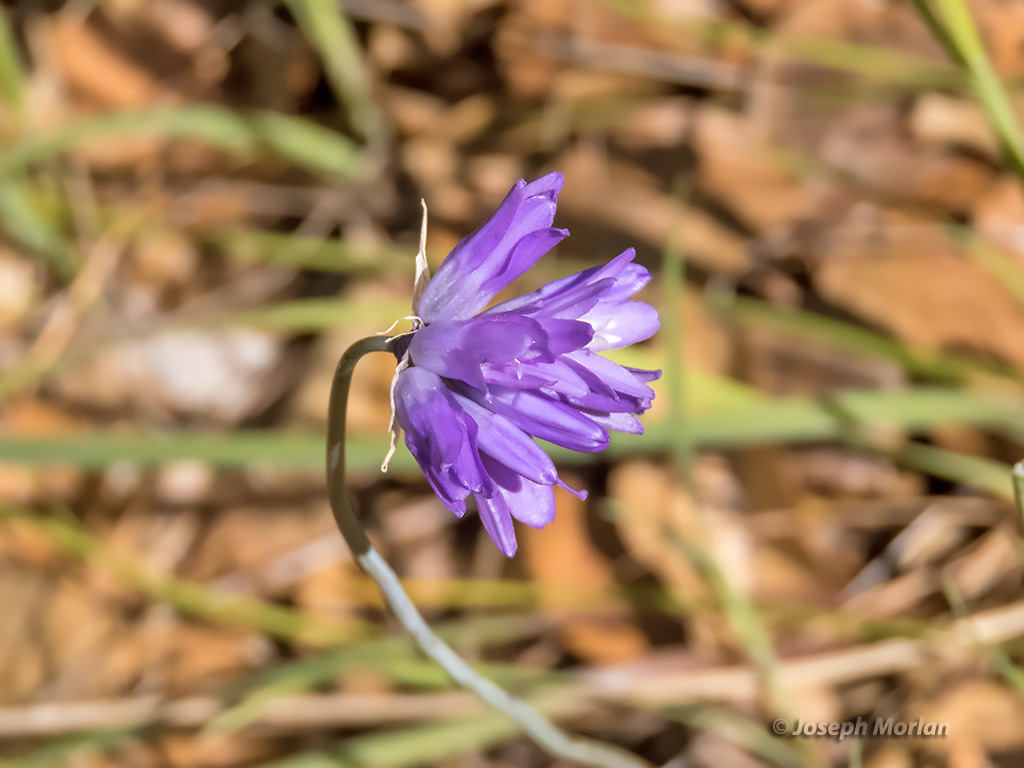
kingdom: Plantae
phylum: Tracheophyta
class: Liliopsida
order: Asparagales
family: Asparagaceae
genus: Dipterostemon
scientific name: Dipterostemon capitatus
